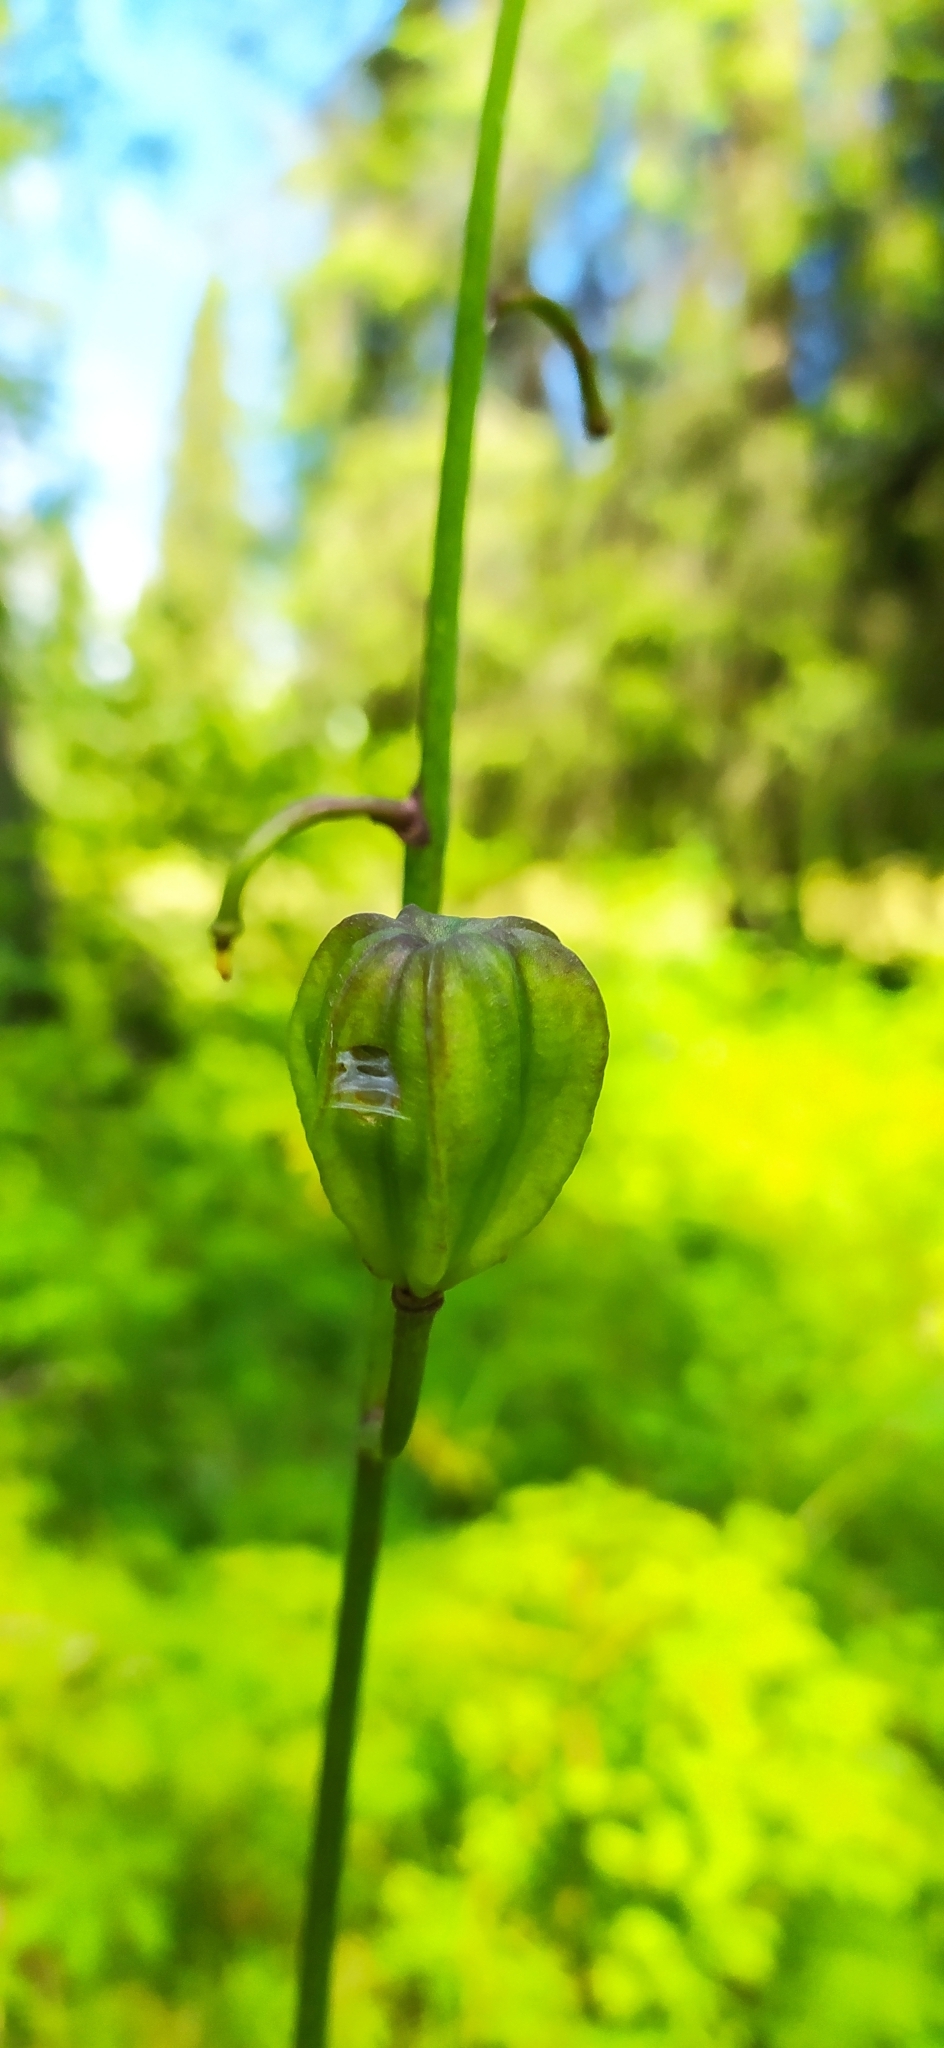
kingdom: Plantae
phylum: Tracheophyta
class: Liliopsida
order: Liliales
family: Liliaceae
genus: Lilium
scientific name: Lilium martagon
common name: Martagon lily
